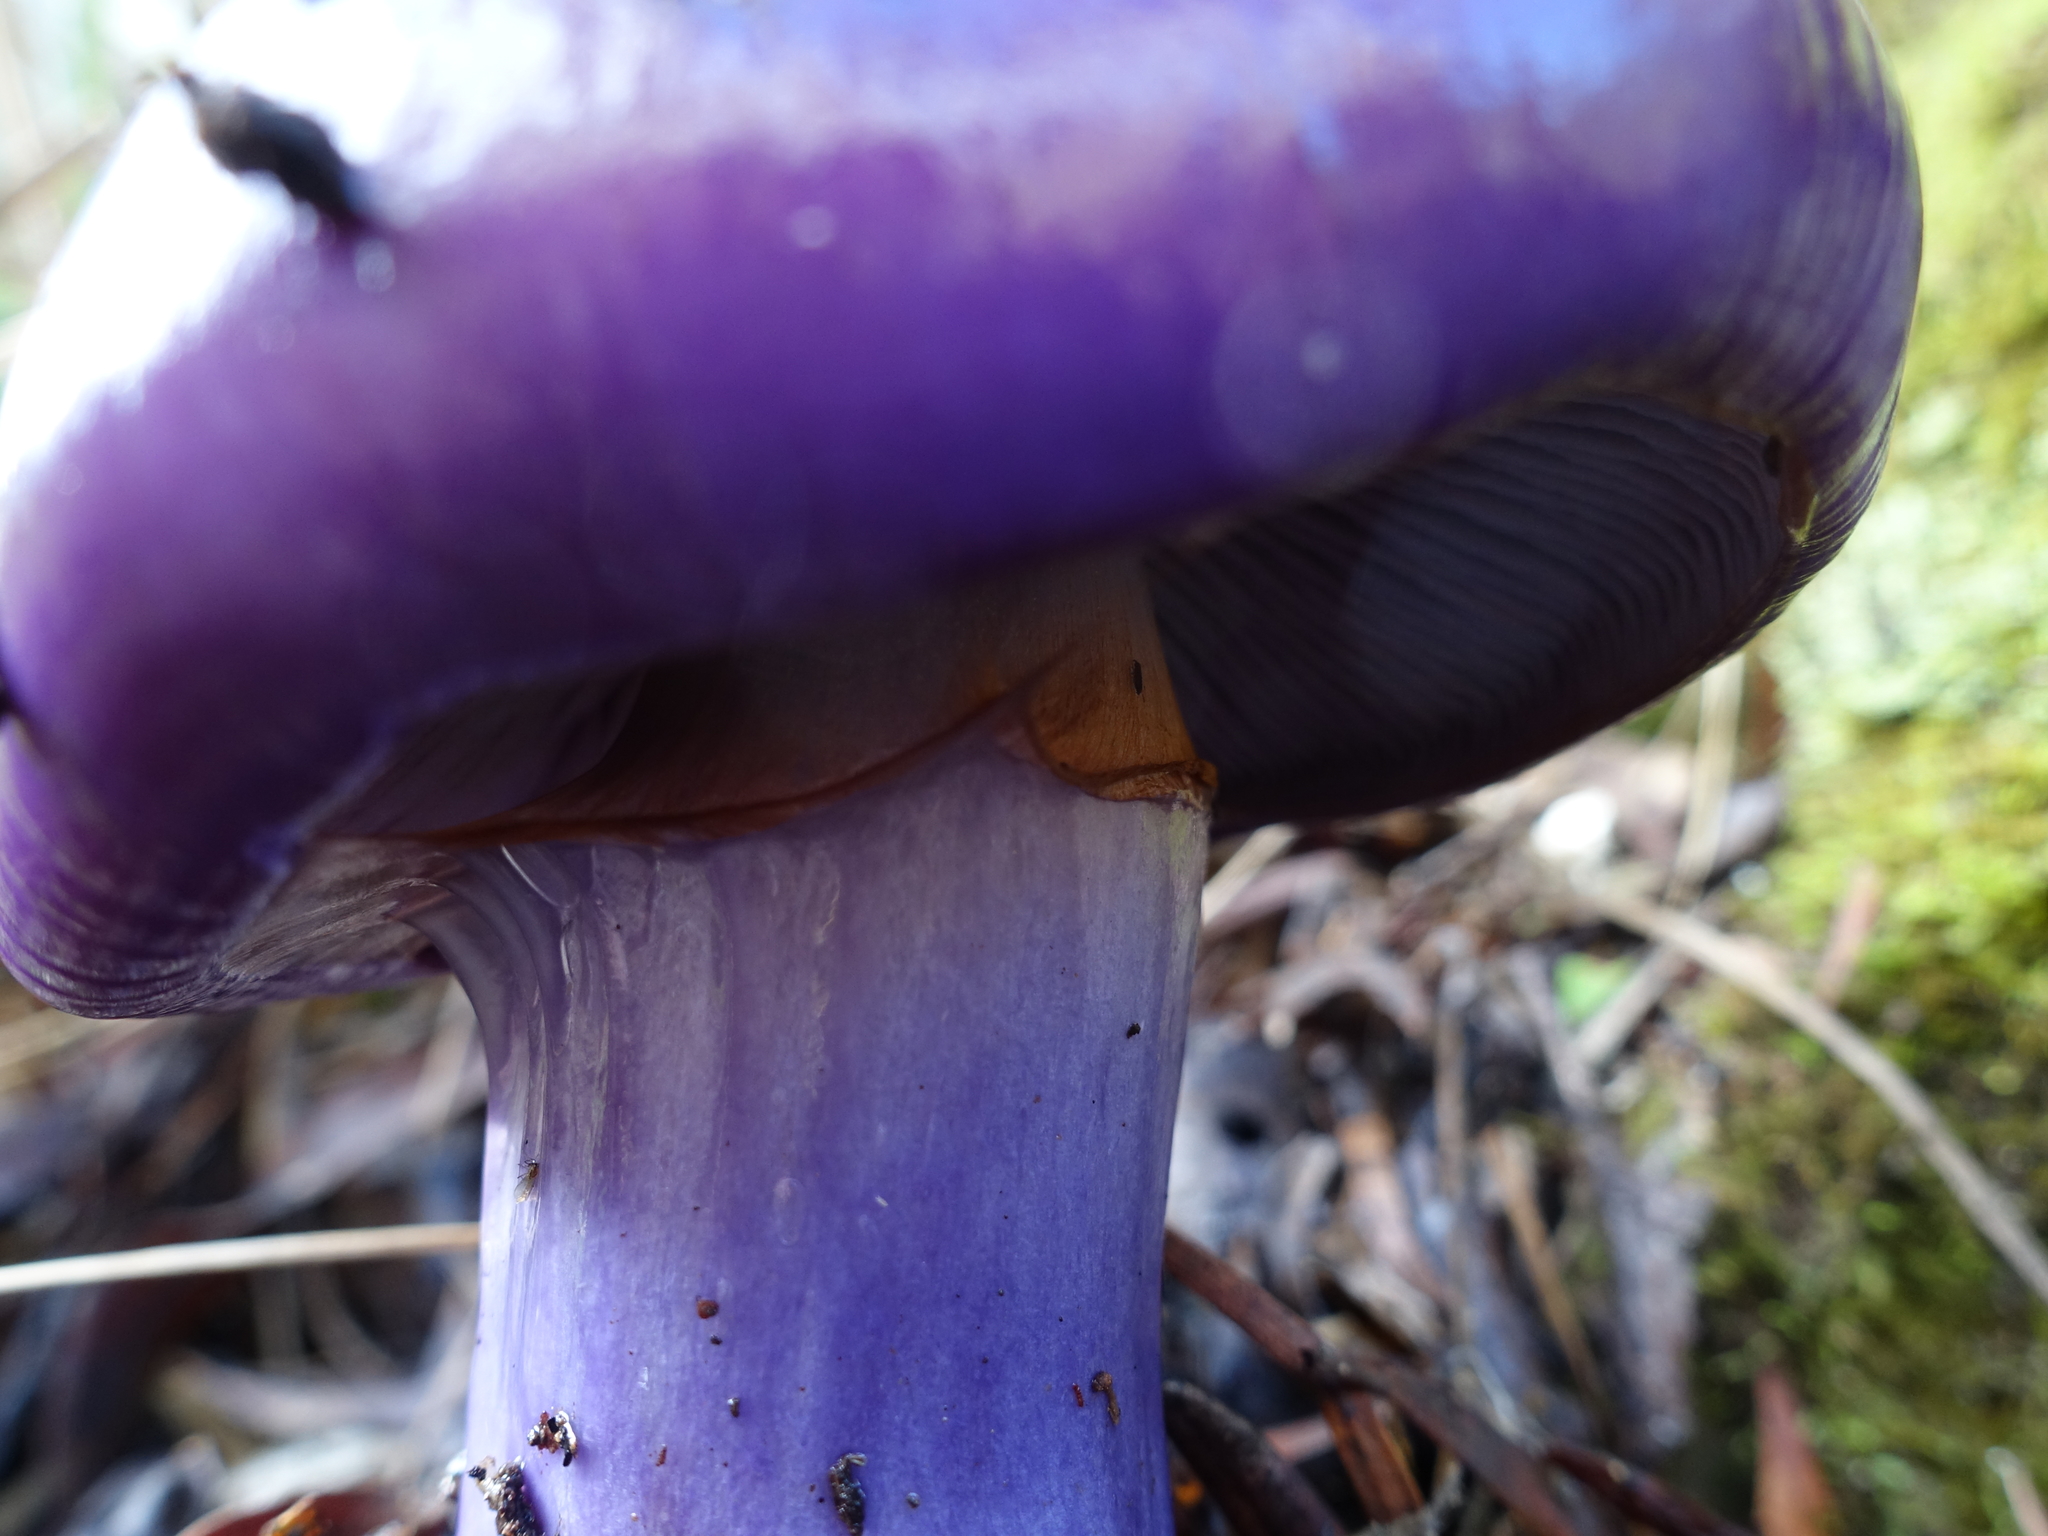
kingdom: Fungi
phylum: Basidiomycota
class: Agaricomycetes
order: Agaricales
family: Cortinariaceae
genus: Cortinarius
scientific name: Cortinarius archeri
